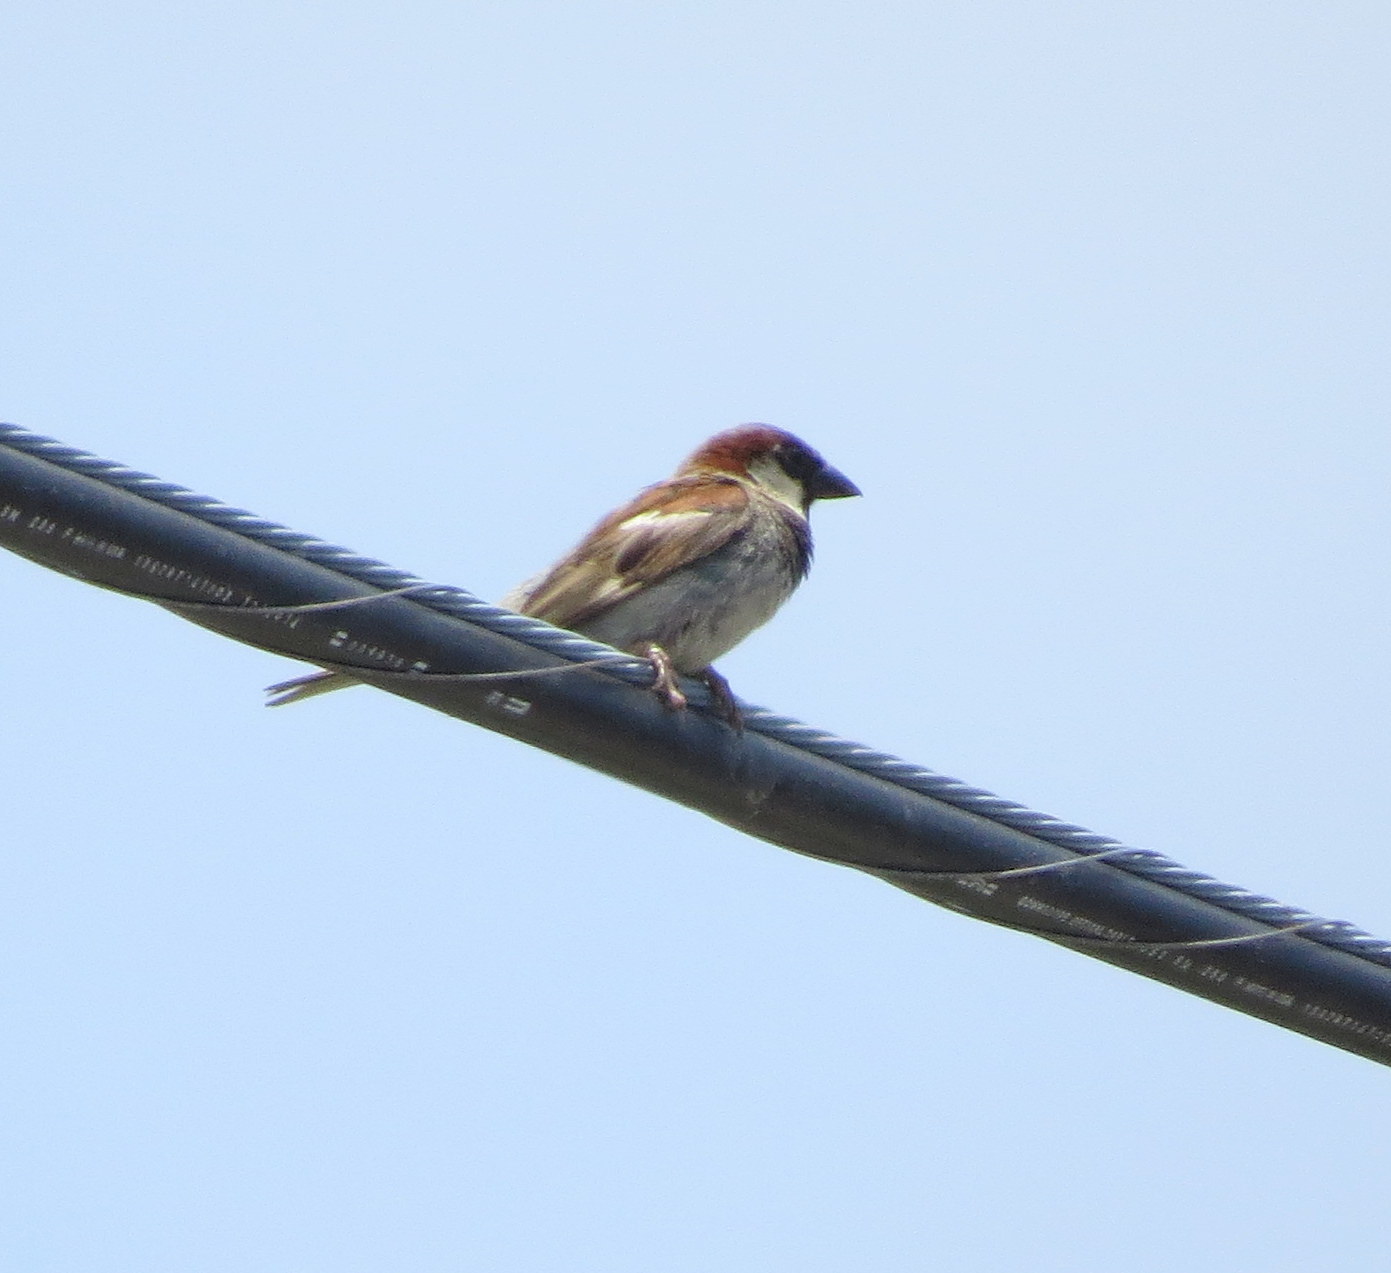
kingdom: Animalia
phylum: Chordata
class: Aves
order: Passeriformes
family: Passeridae
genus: Passer
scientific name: Passer domesticus
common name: House sparrow
